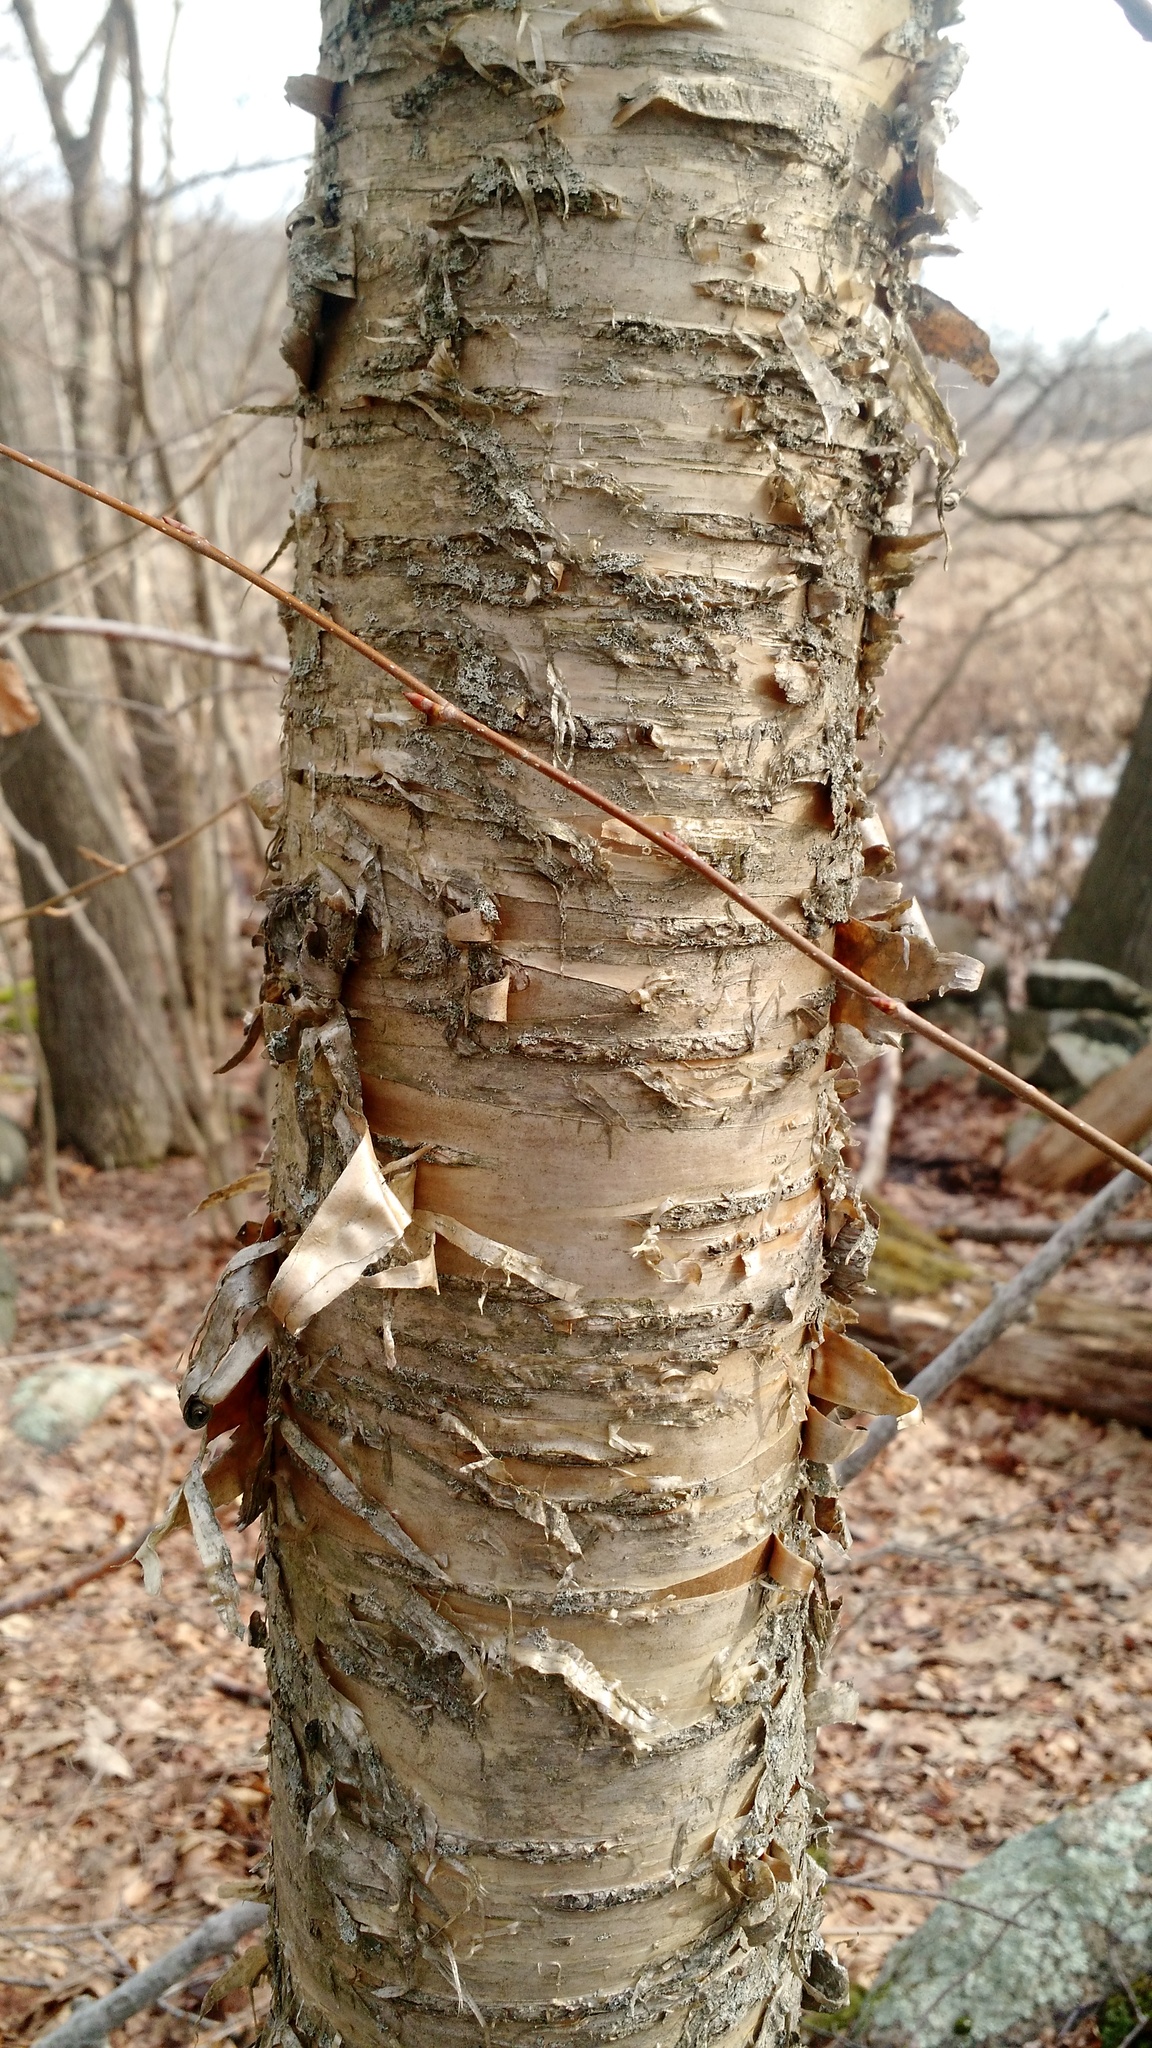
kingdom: Plantae
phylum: Tracheophyta
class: Magnoliopsida
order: Fagales
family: Betulaceae
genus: Betula
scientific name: Betula alleghaniensis
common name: Yellow birch
